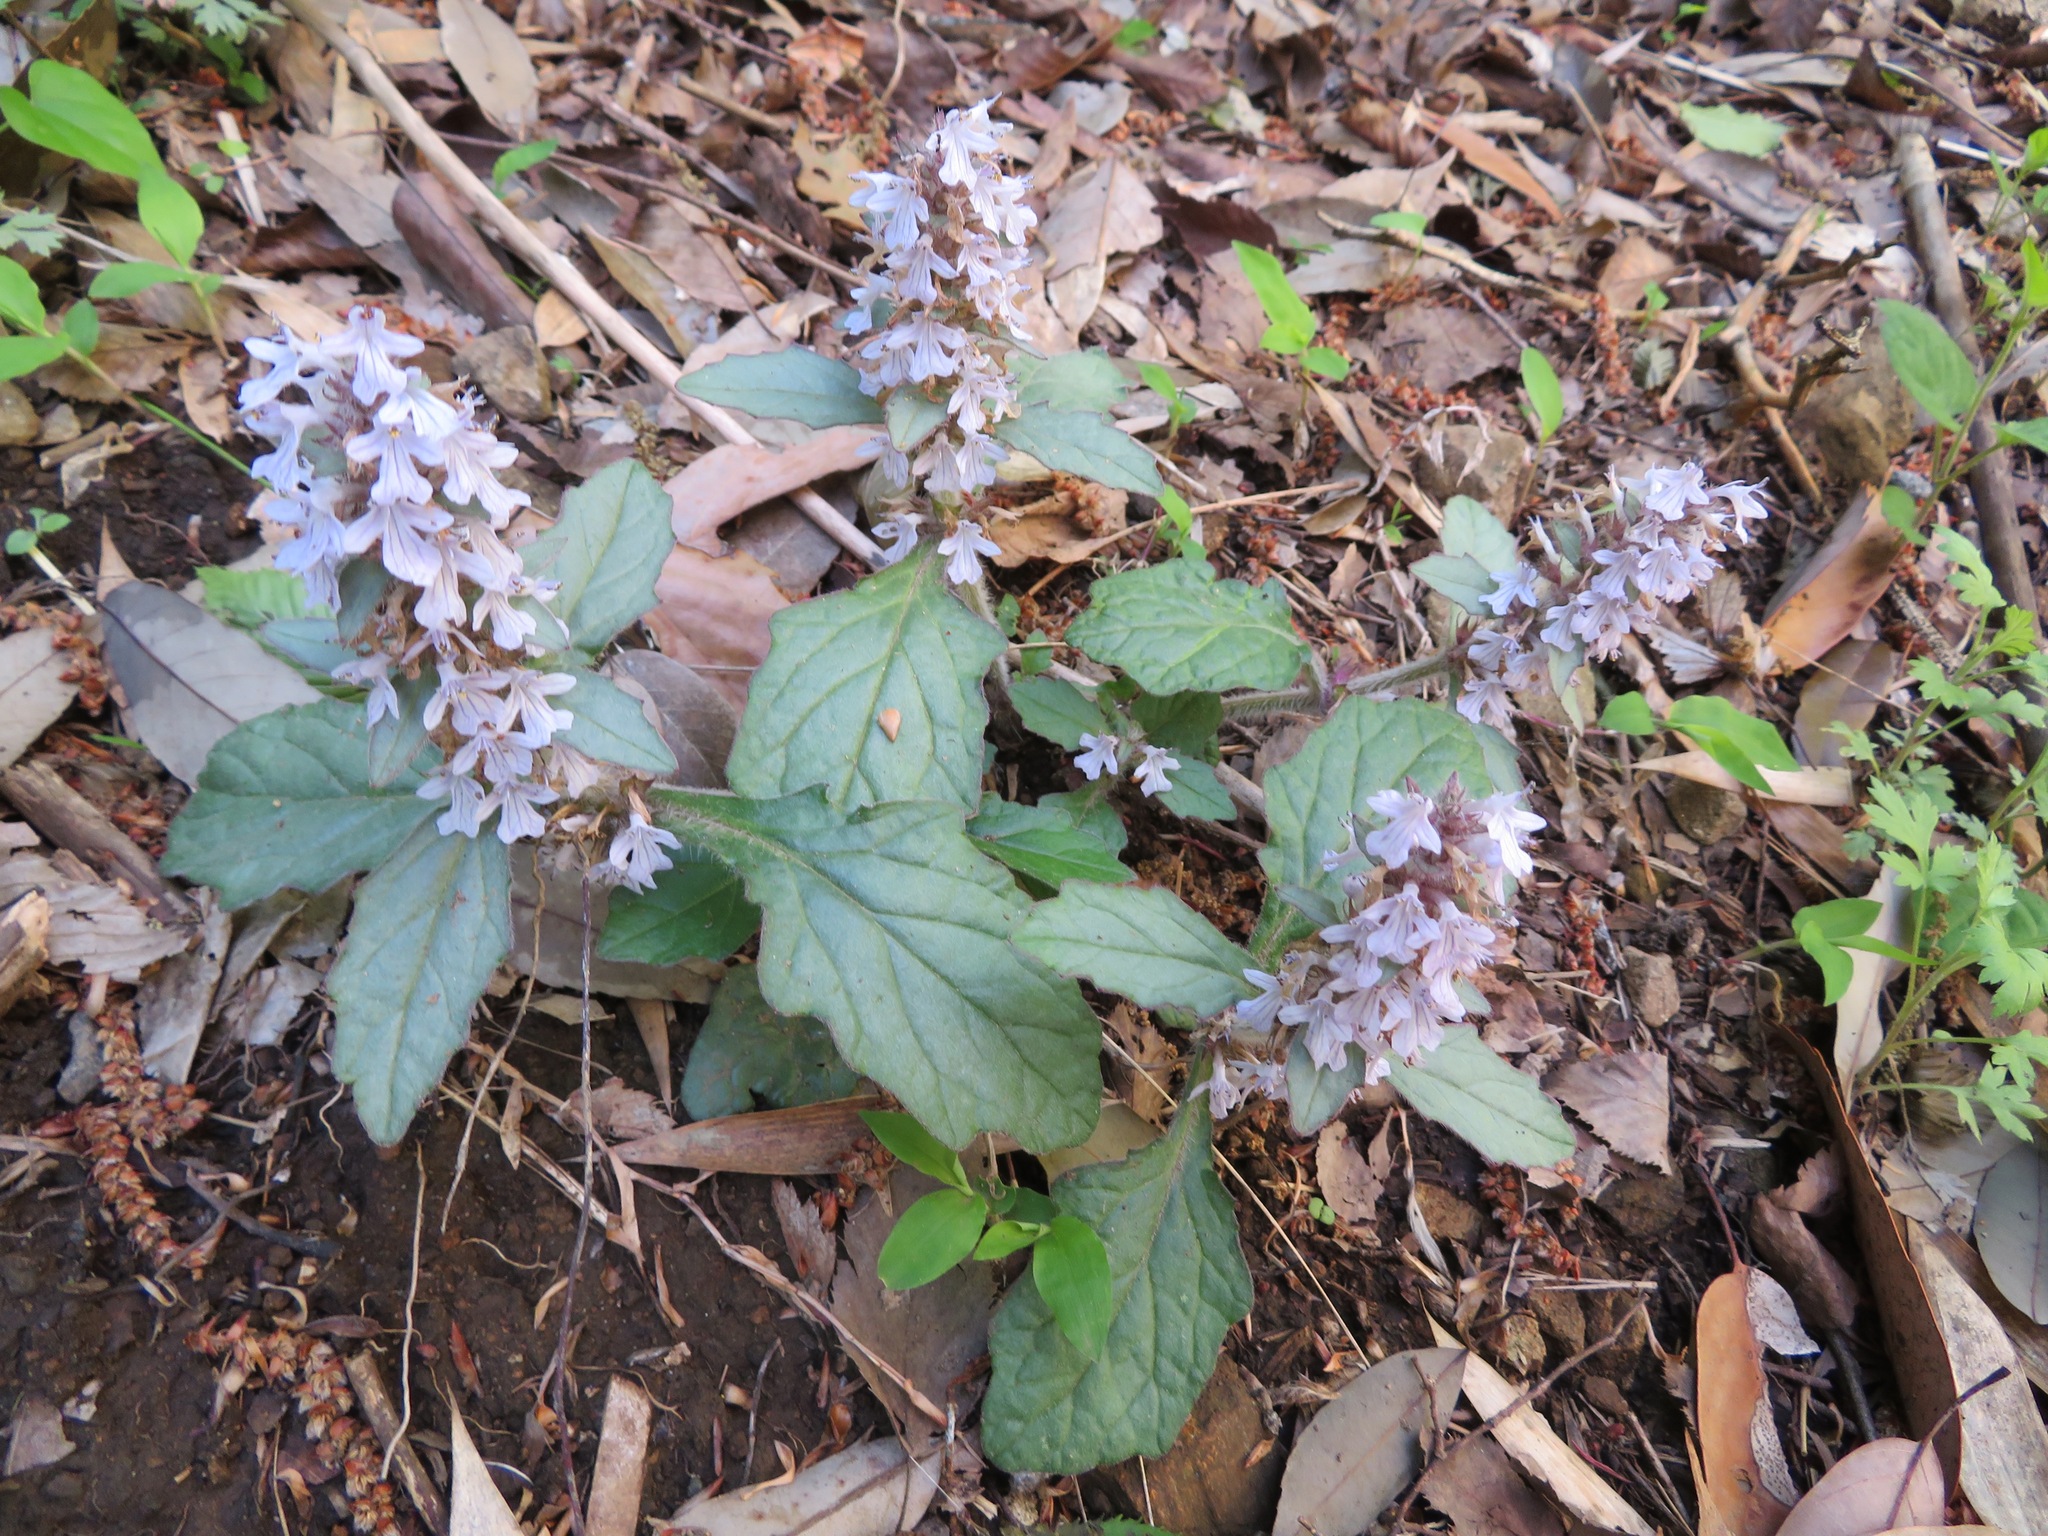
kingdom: Plantae
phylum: Tracheophyta
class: Magnoliopsida
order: Lamiales
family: Lamiaceae
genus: Ajuga
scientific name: Ajuga nipponensis
